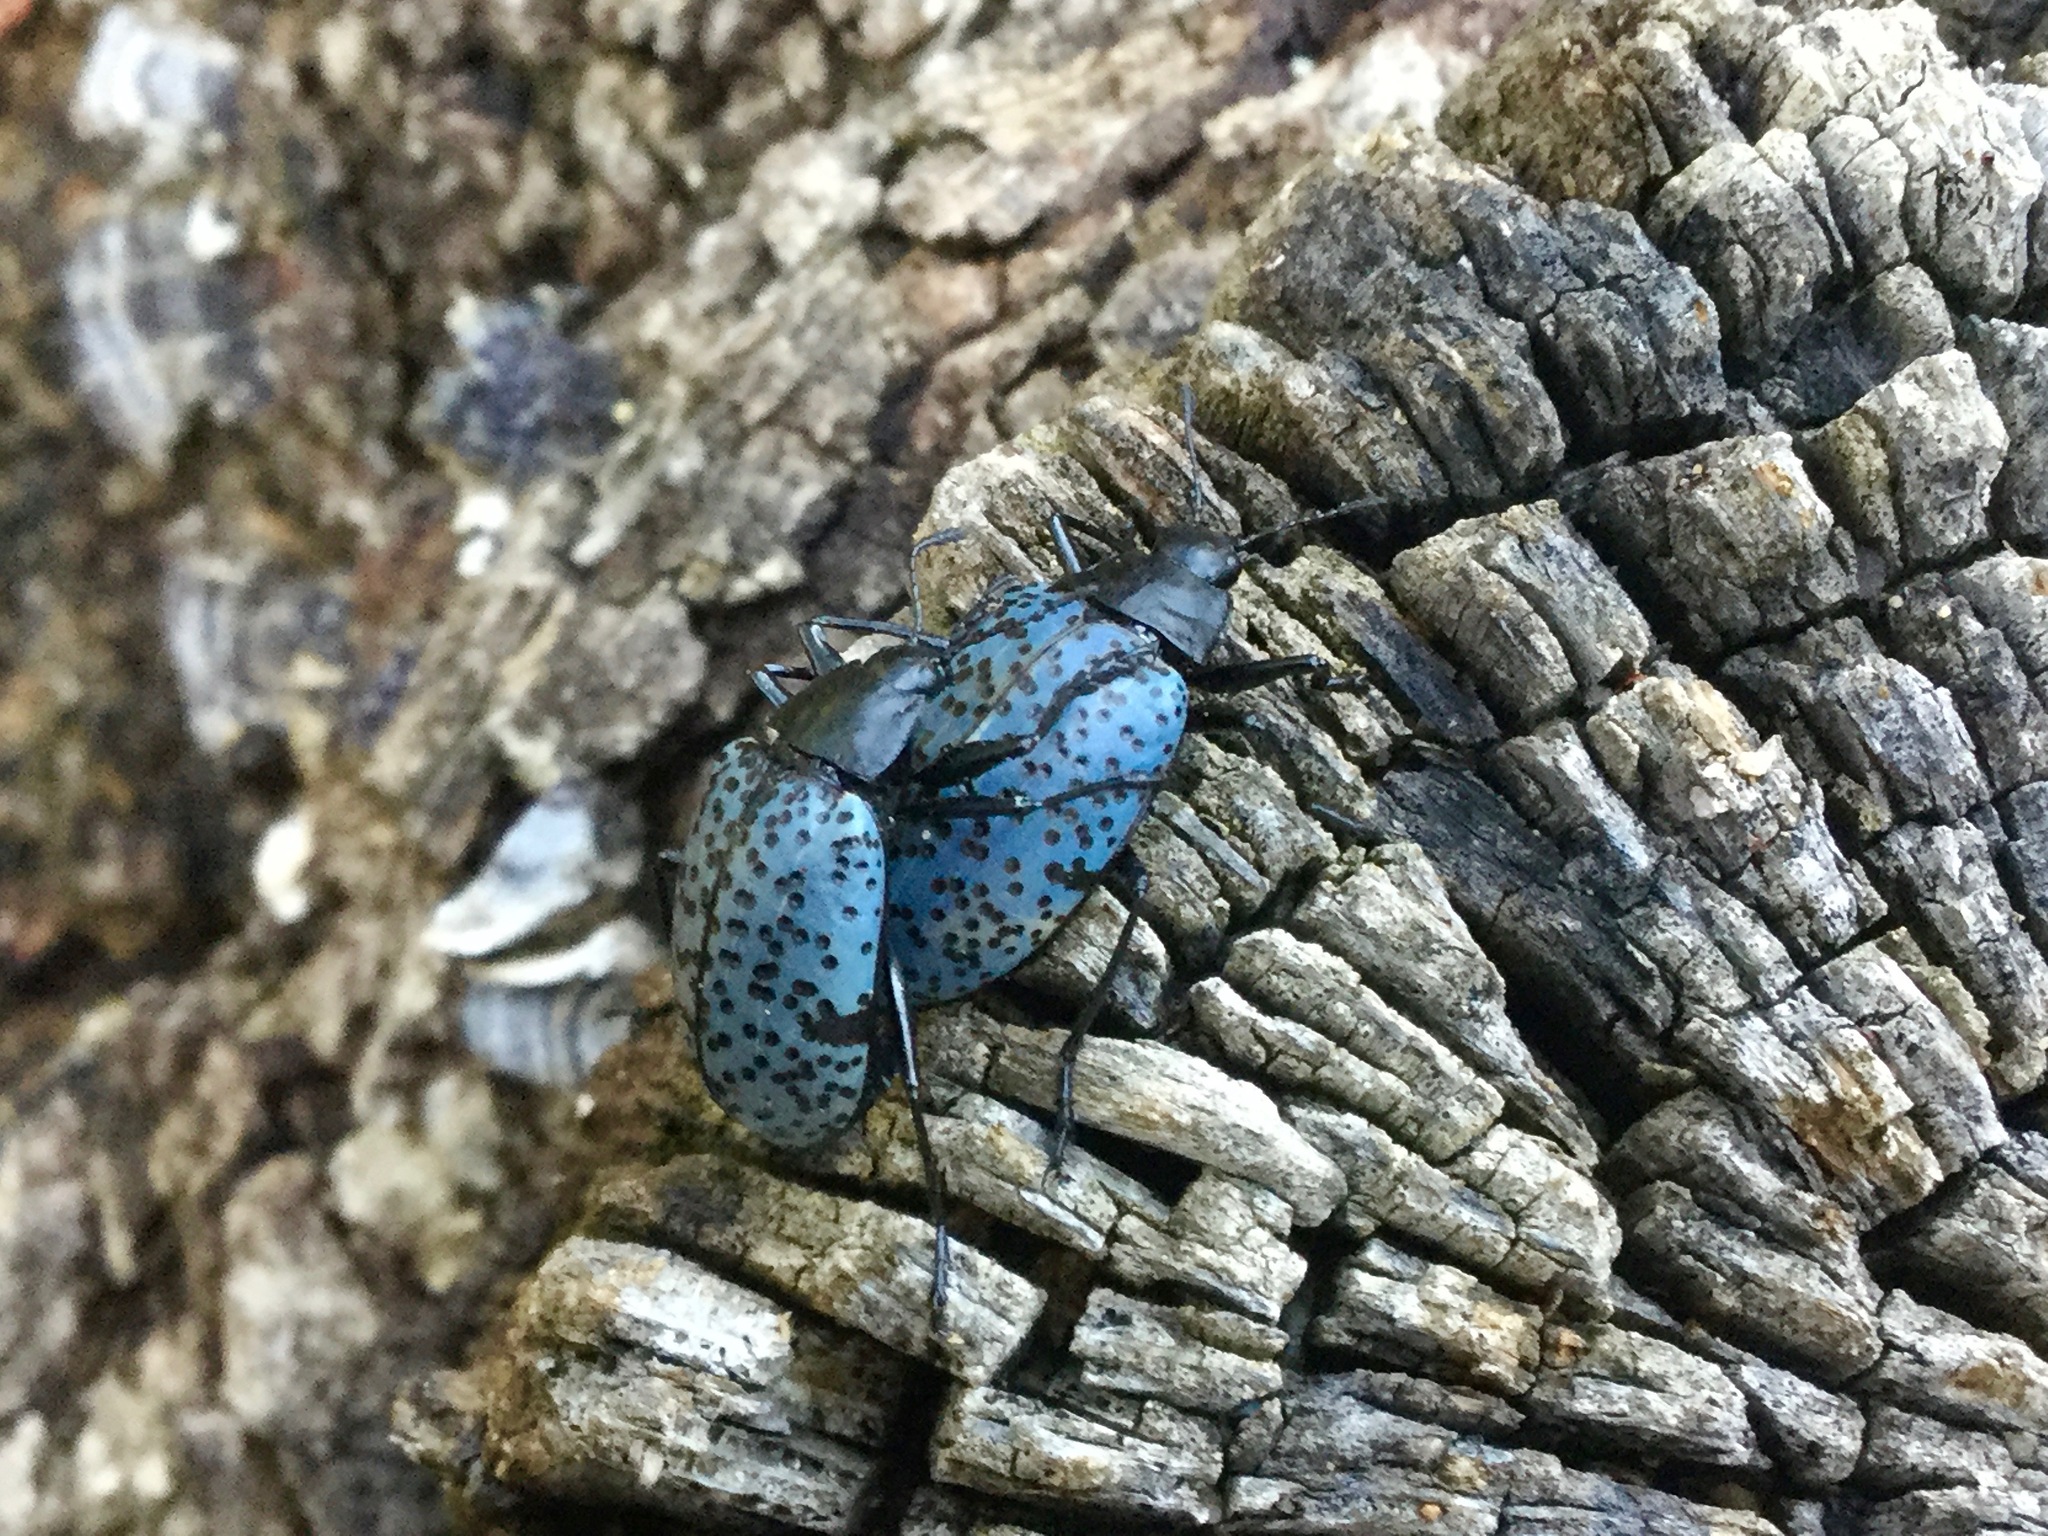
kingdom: Animalia
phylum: Arthropoda
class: Insecta
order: Coleoptera
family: Erotylidae
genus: Gibbifer
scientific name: Gibbifer californicus
